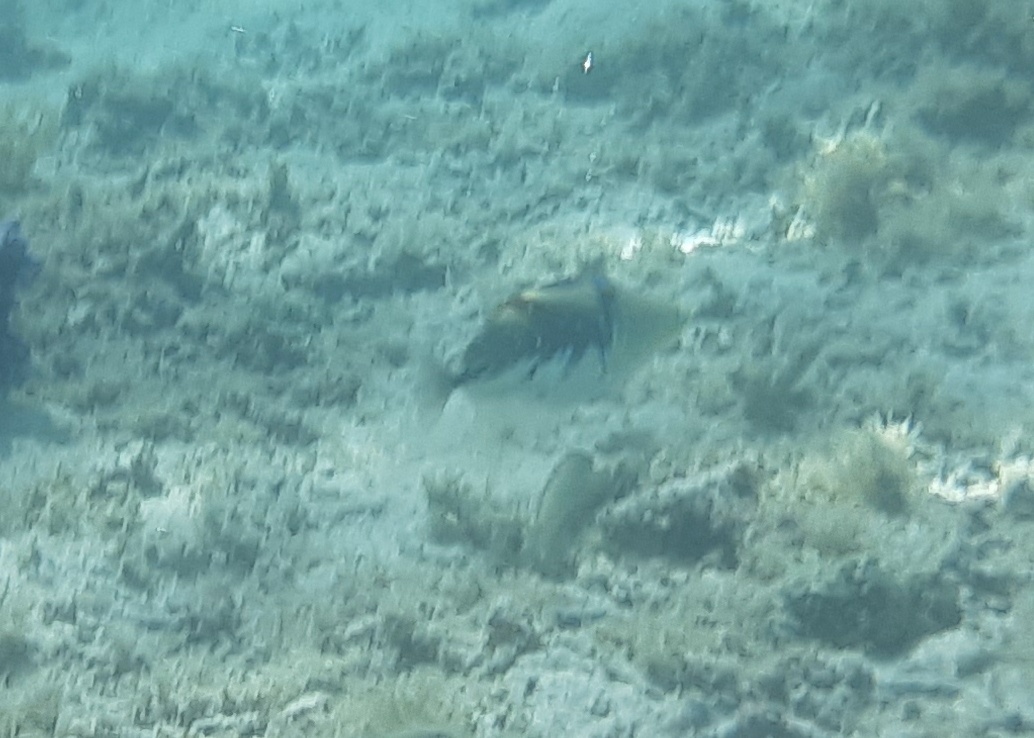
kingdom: Animalia
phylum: Chordata
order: Tetraodontiformes
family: Balistidae
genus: Rhinecanthus
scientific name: Rhinecanthus aculeatus
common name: White-banded triggerfish
